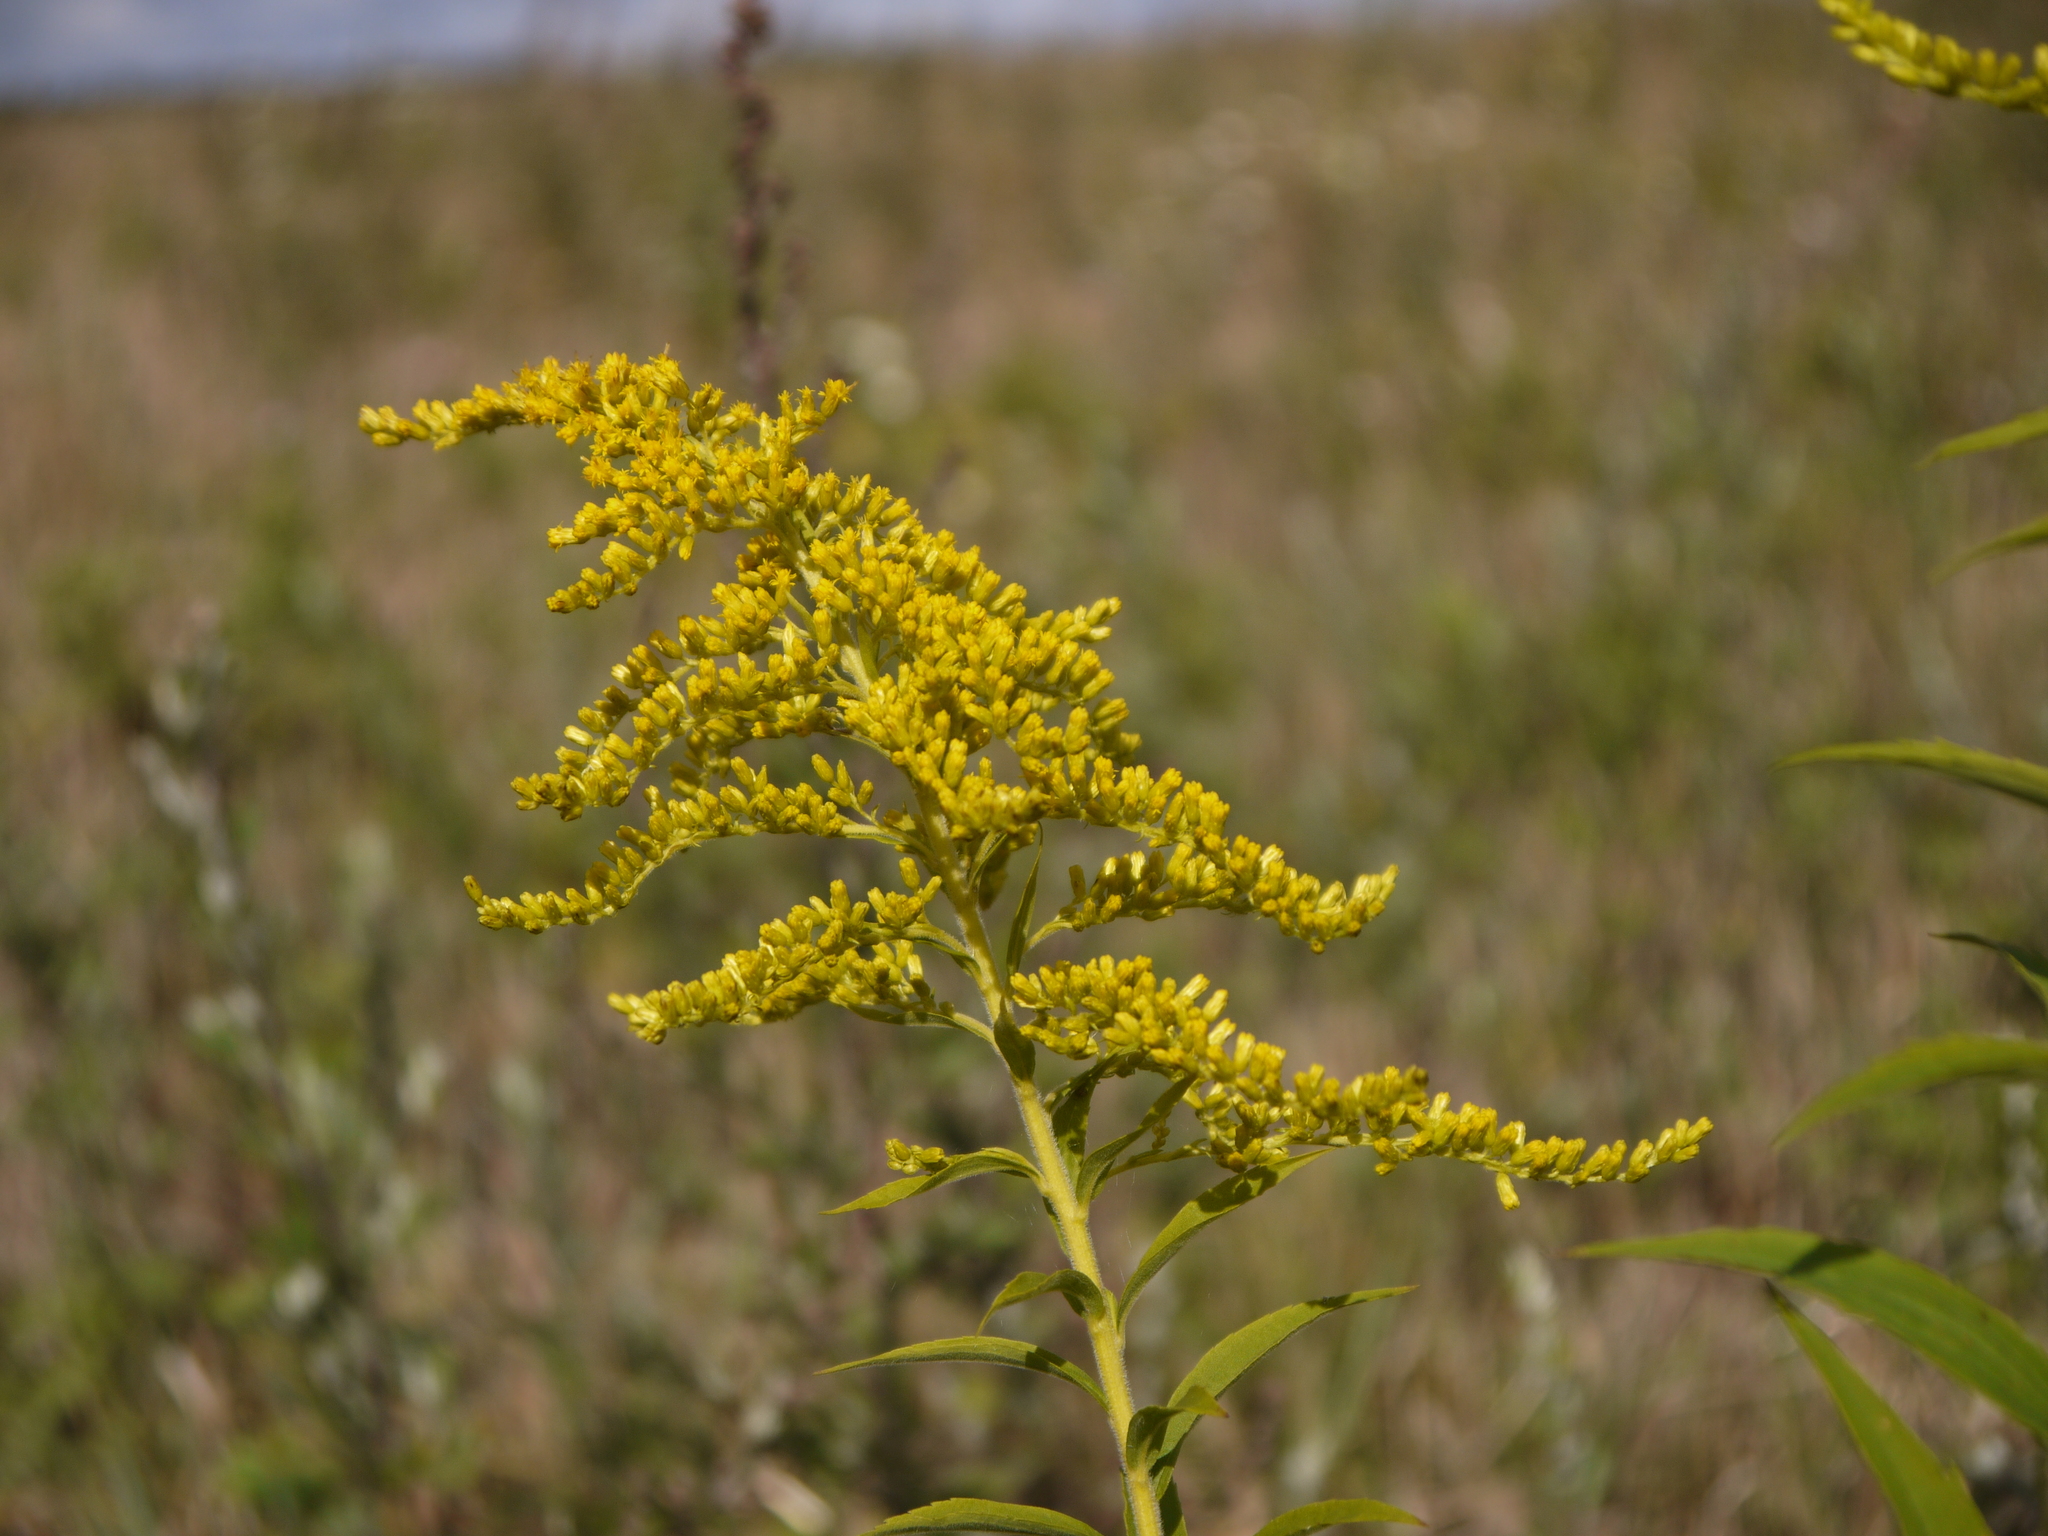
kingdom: Plantae
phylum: Tracheophyta
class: Magnoliopsida
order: Asterales
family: Asteraceae
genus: Solidago
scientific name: Solidago canadensis
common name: Canada goldenrod
